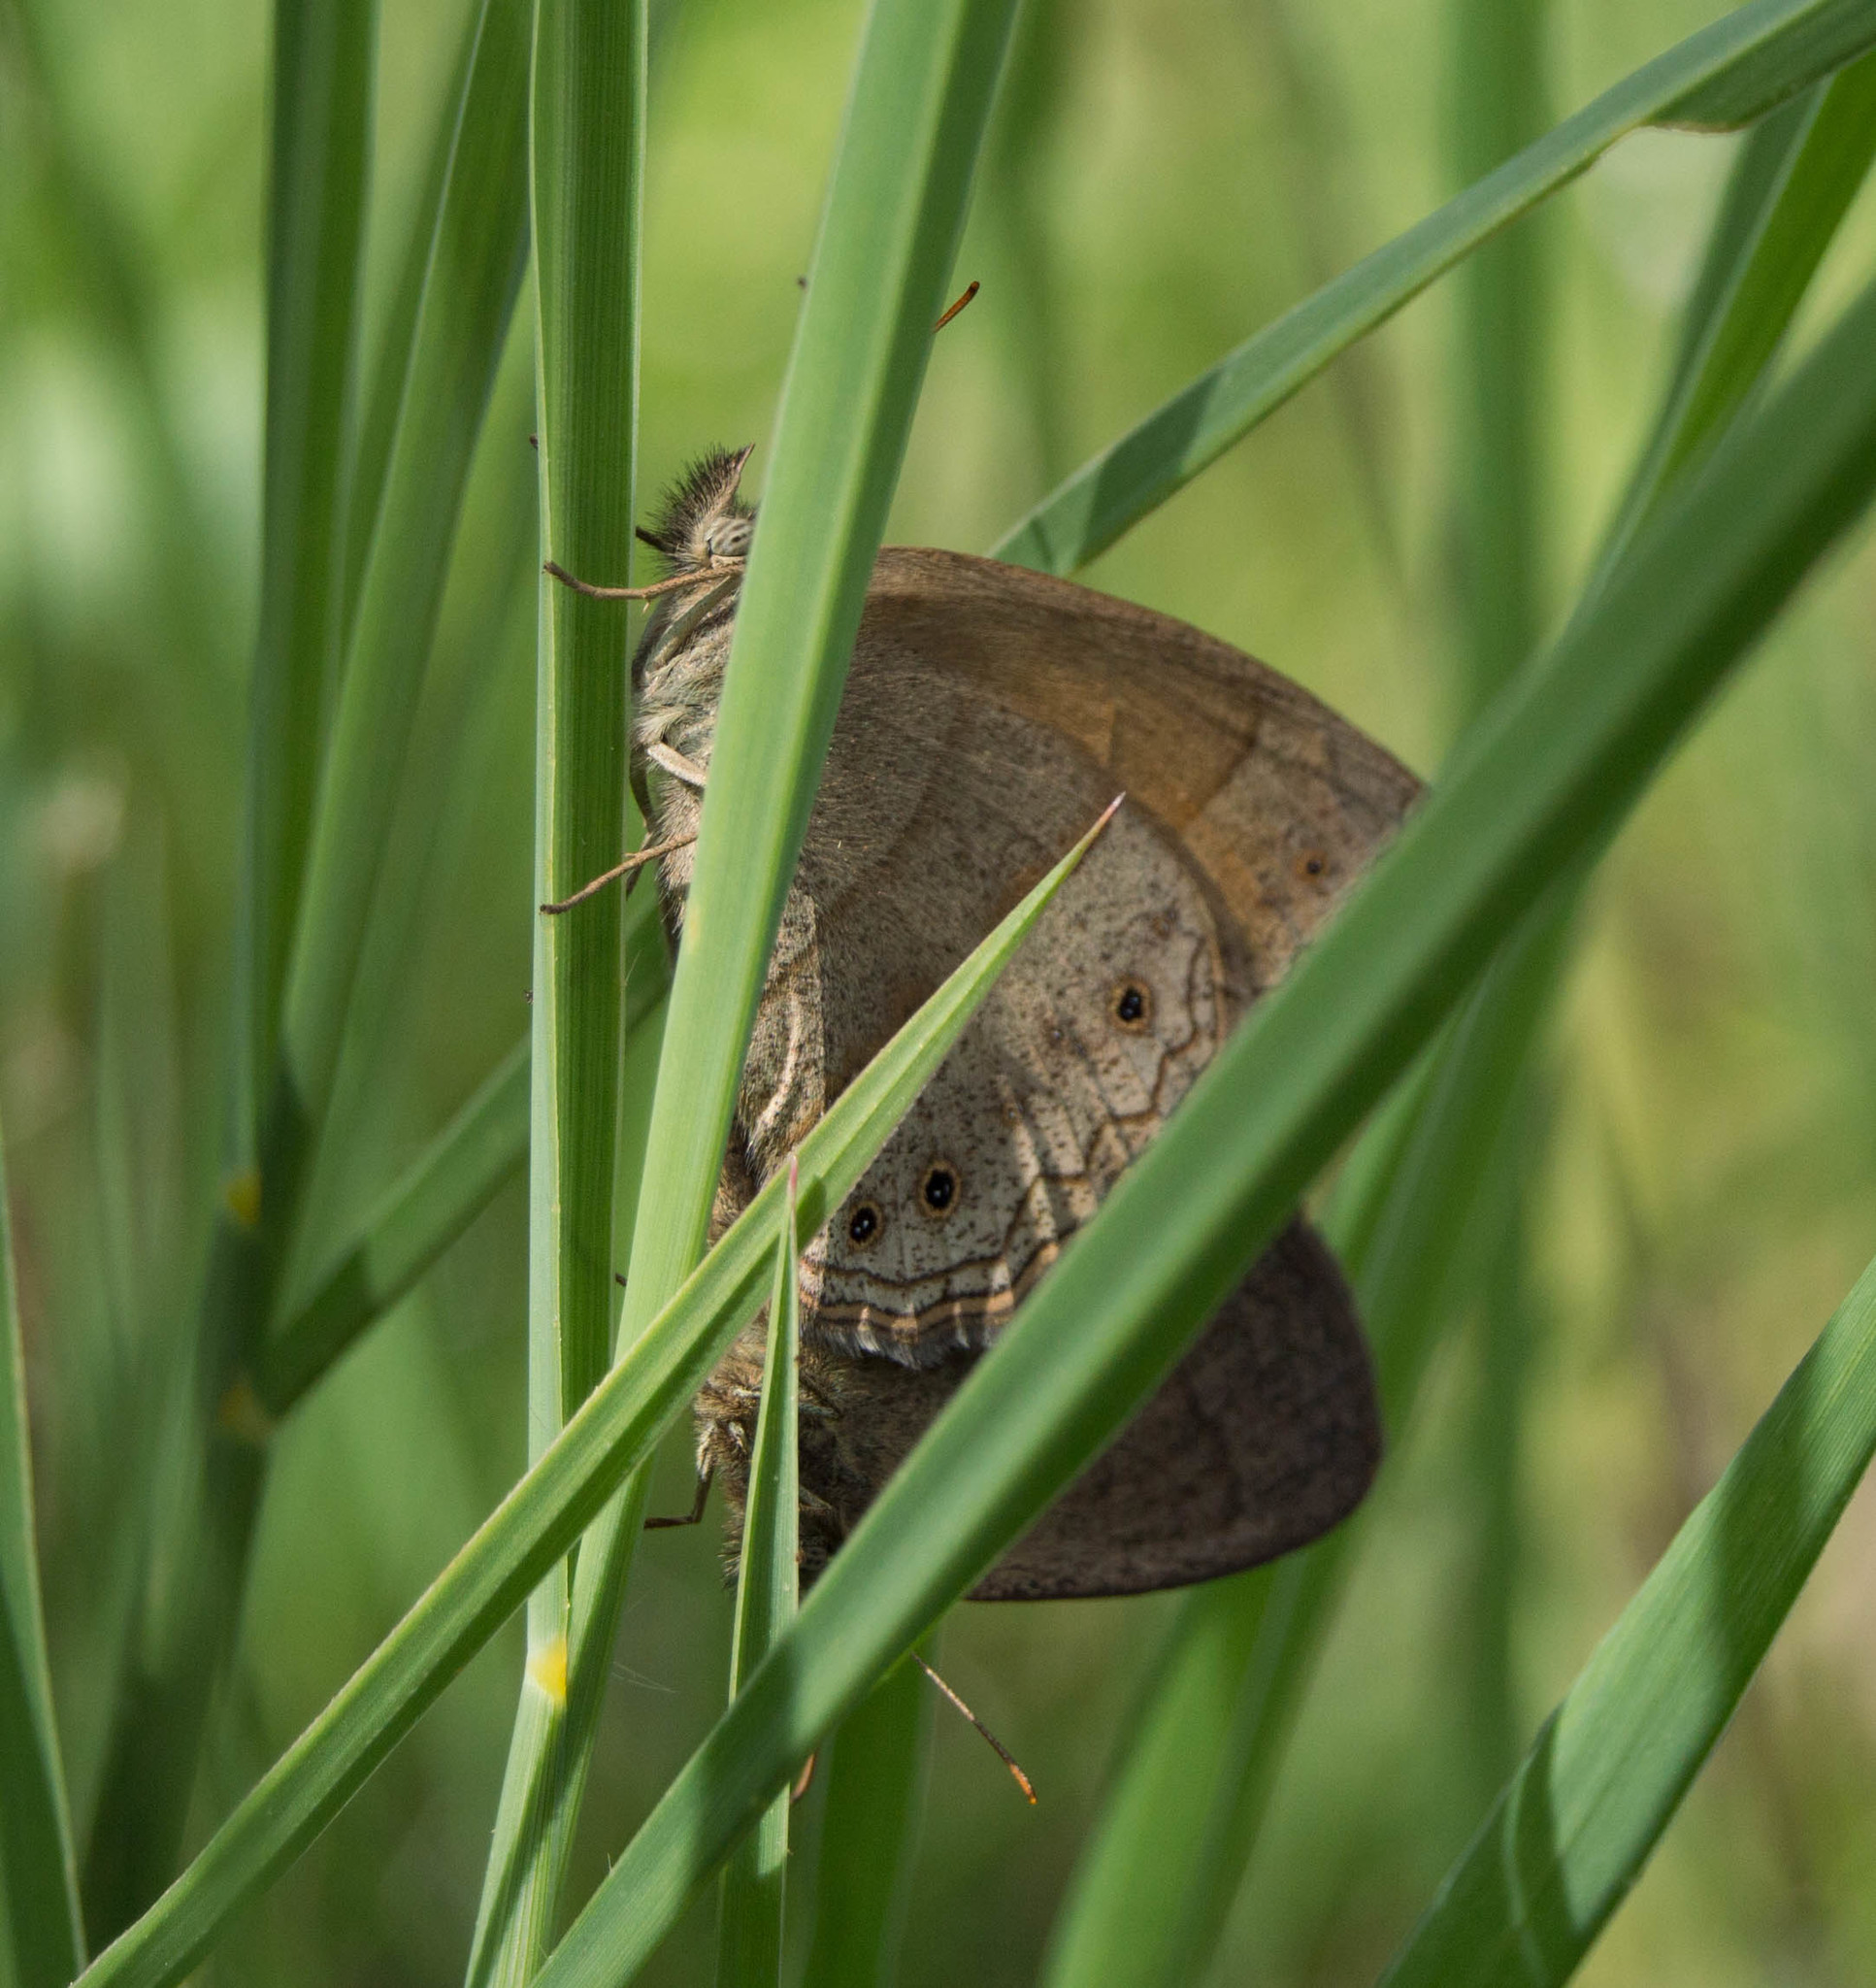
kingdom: Animalia
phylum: Arthropoda
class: Insecta
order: Lepidoptera
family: Nymphalidae
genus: Yphthimoides
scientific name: Yphthimoides celmis
